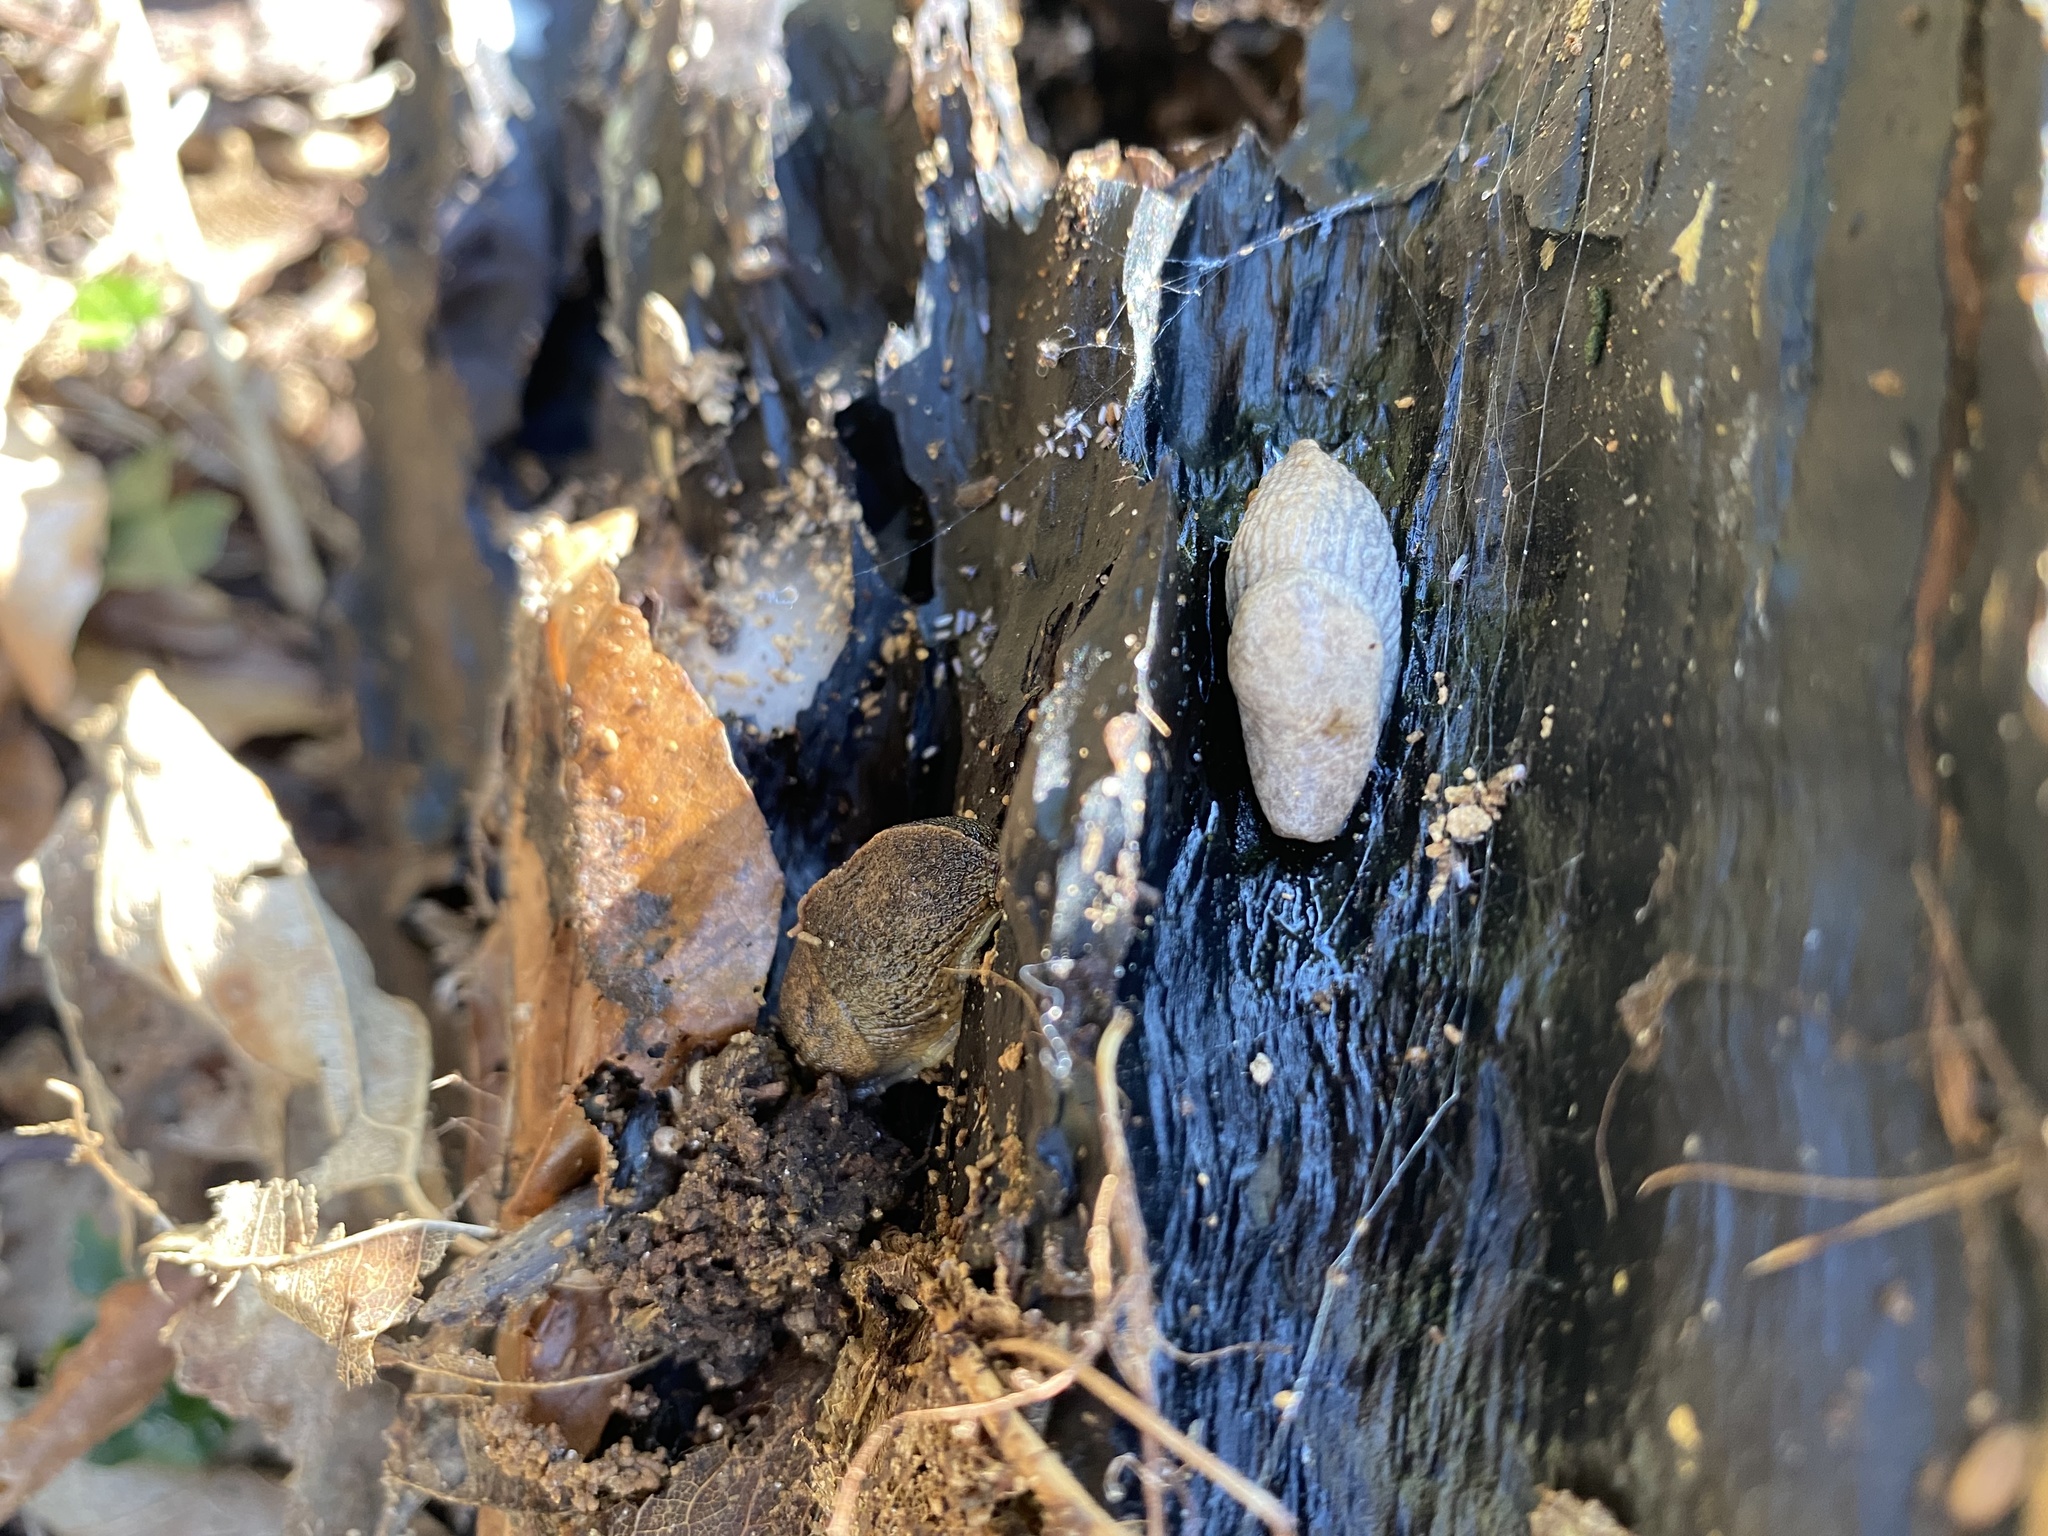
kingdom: Animalia
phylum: Mollusca
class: Gastropoda
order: Stylommatophora
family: Agriolimacidae
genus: Deroceras
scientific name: Deroceras reticulatum
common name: Gray field slug
